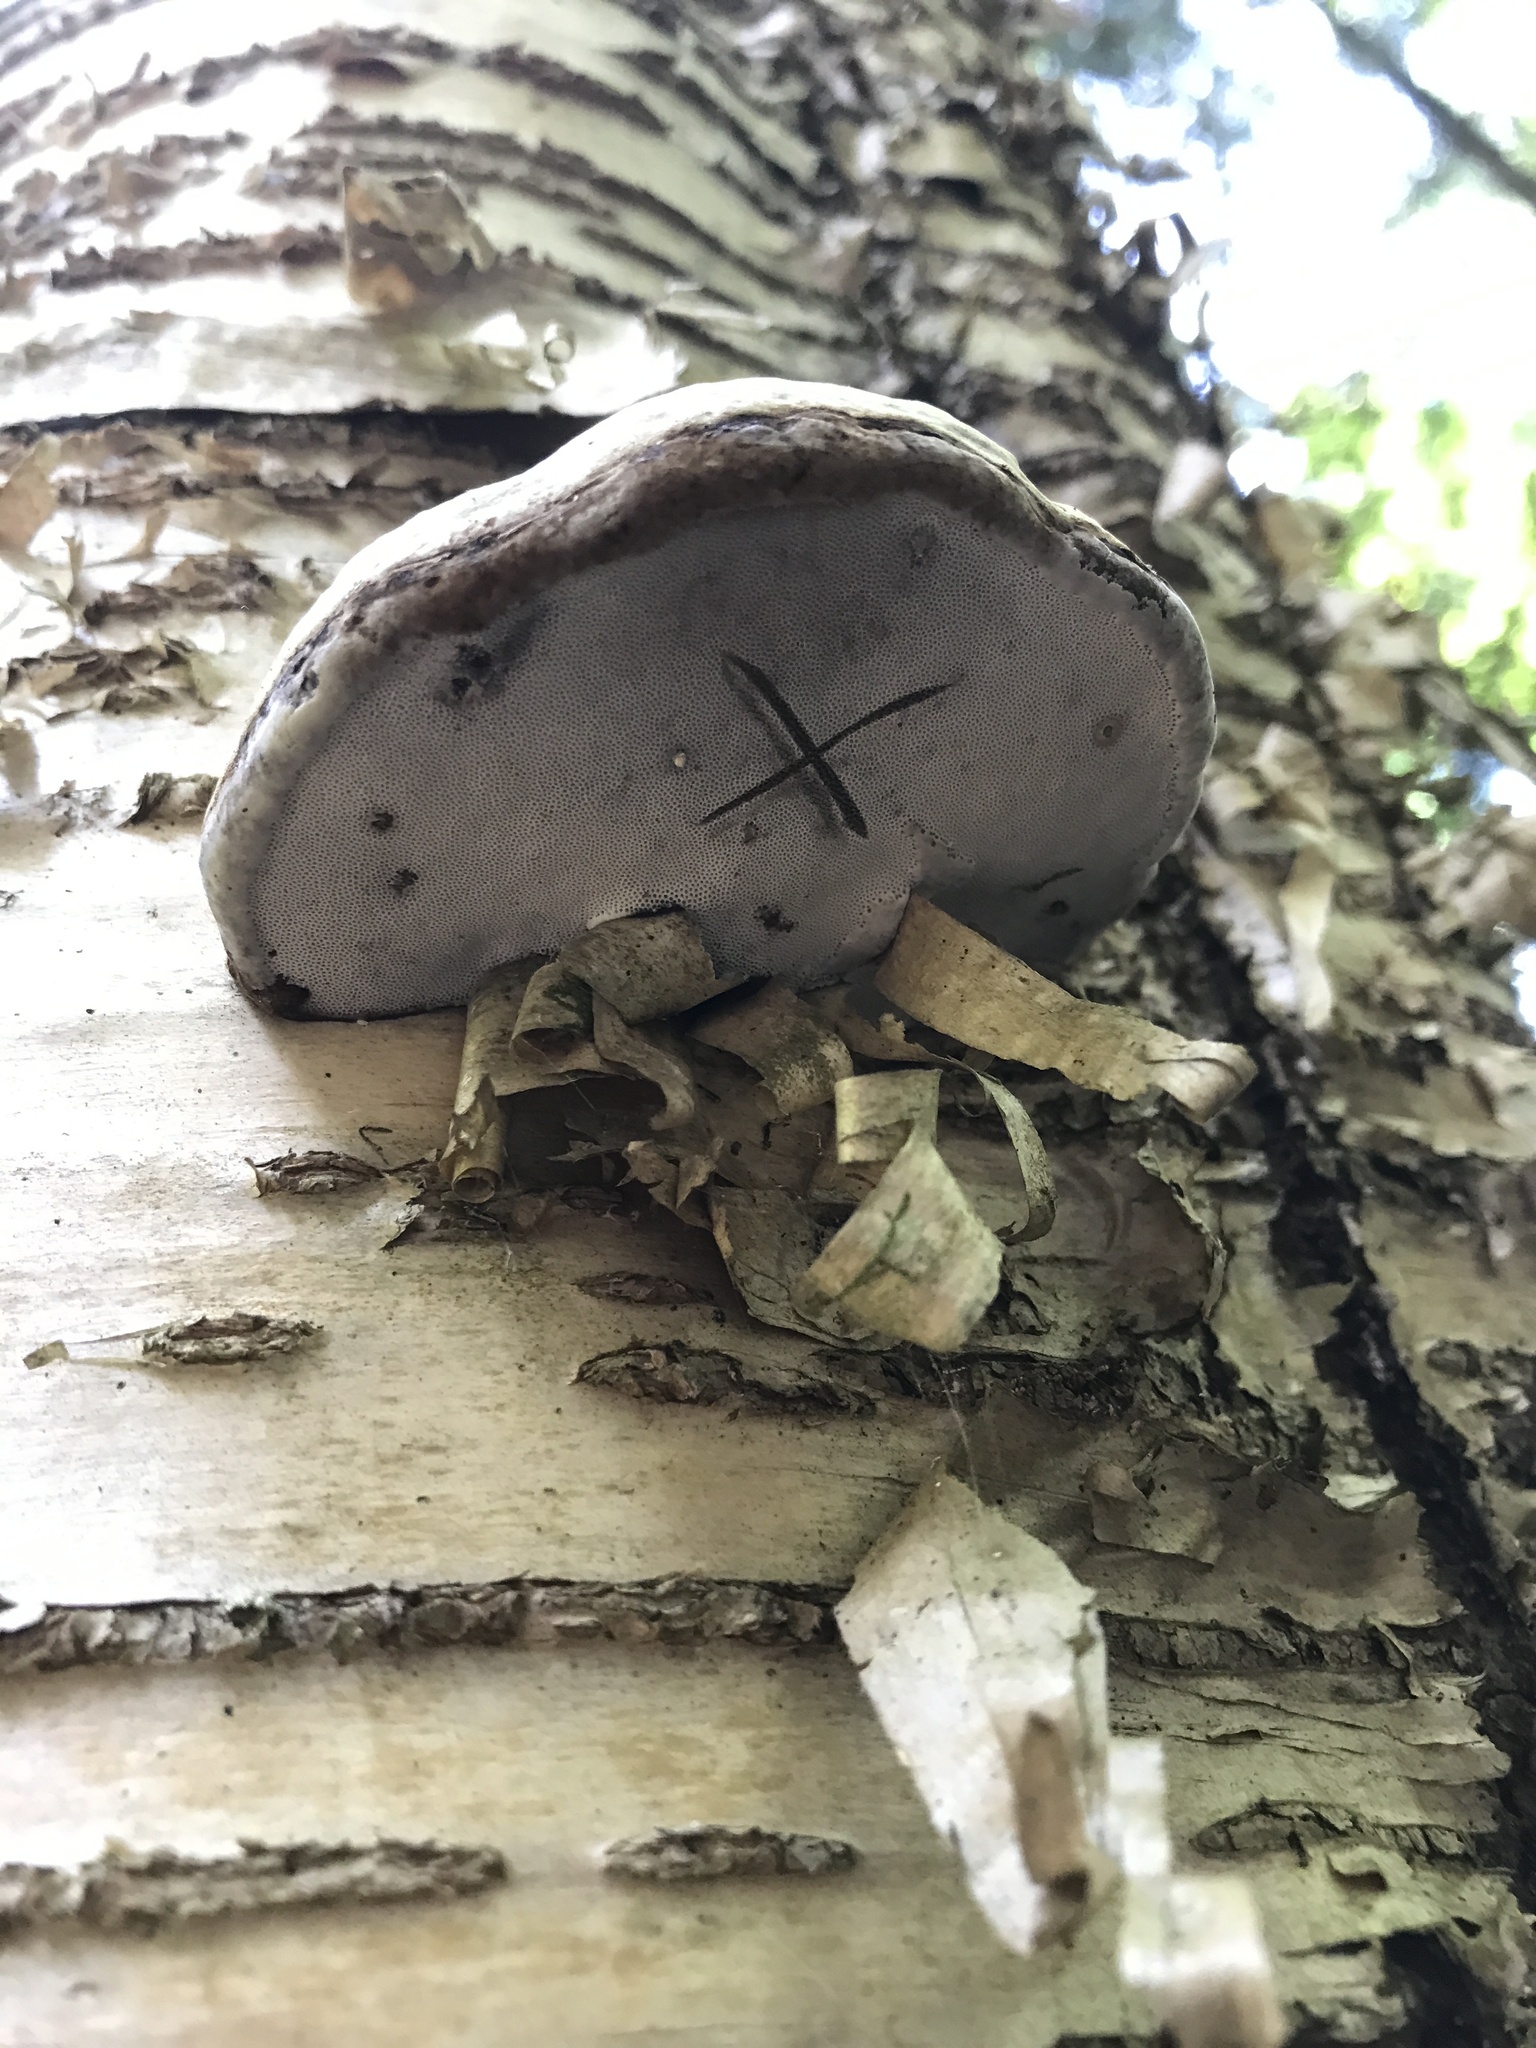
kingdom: Fungi
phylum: Basidiomycota
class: Agaricomycetes
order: Polyporales
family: Polyporaceae
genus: Fomes
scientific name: Fomes fomentarius
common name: Hoof fungus
